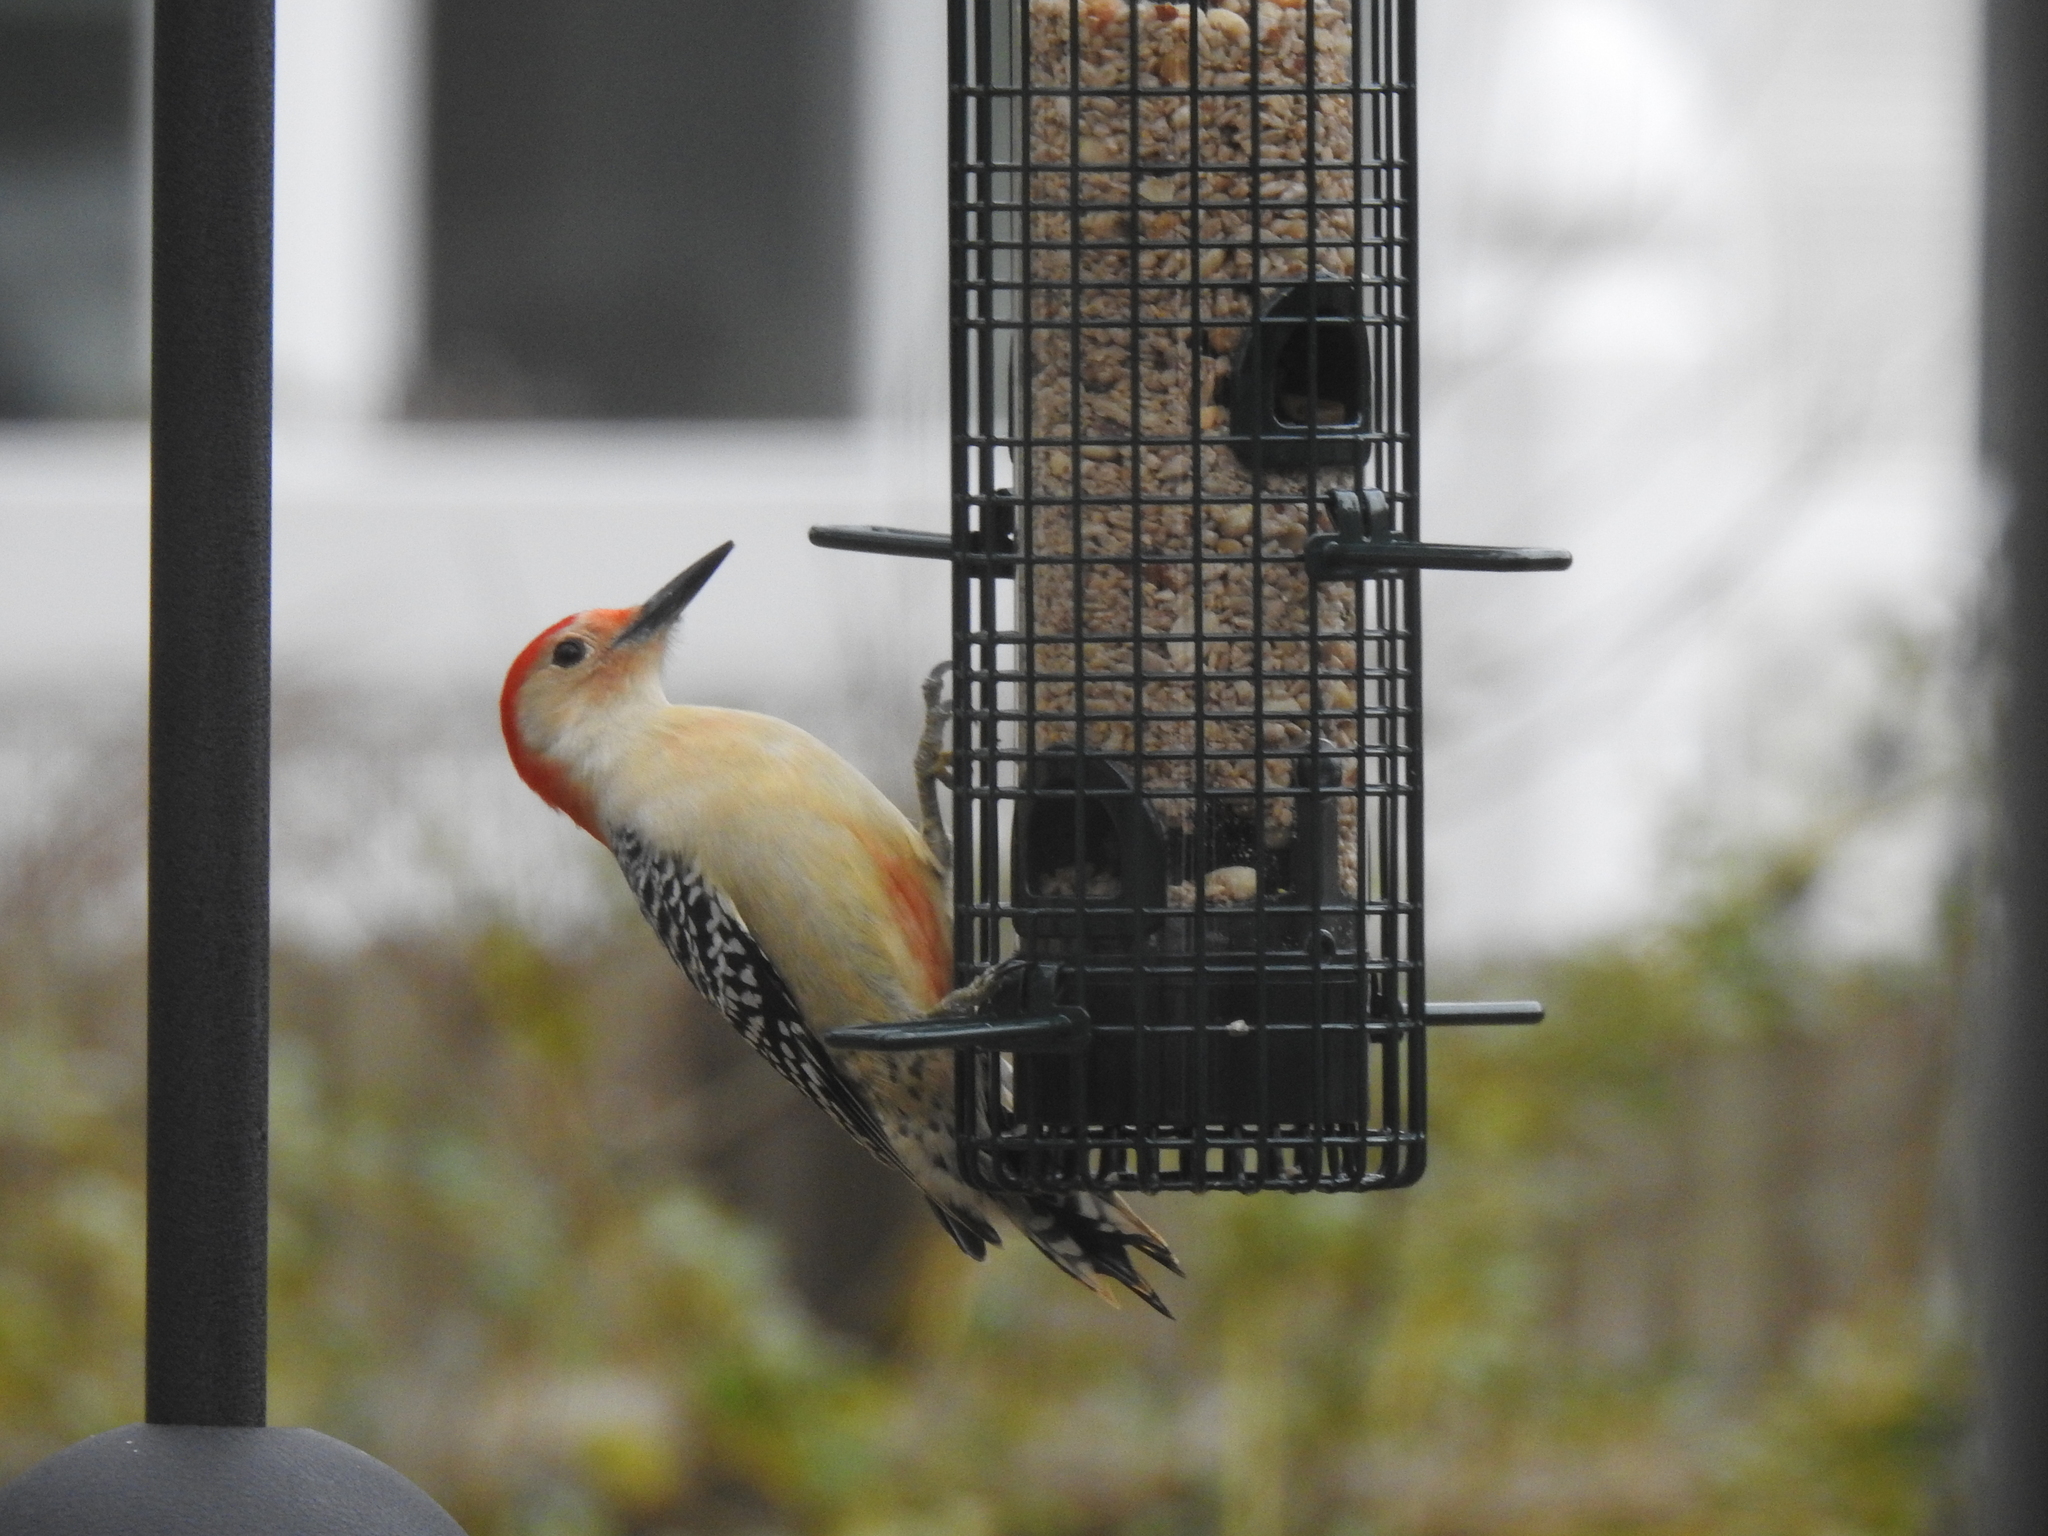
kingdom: Animalia
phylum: Chordata
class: Aves
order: Piciformes
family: Picidae
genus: Melanerpes
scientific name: Melanerpes carolinus
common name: Red-bellied woodpecker
